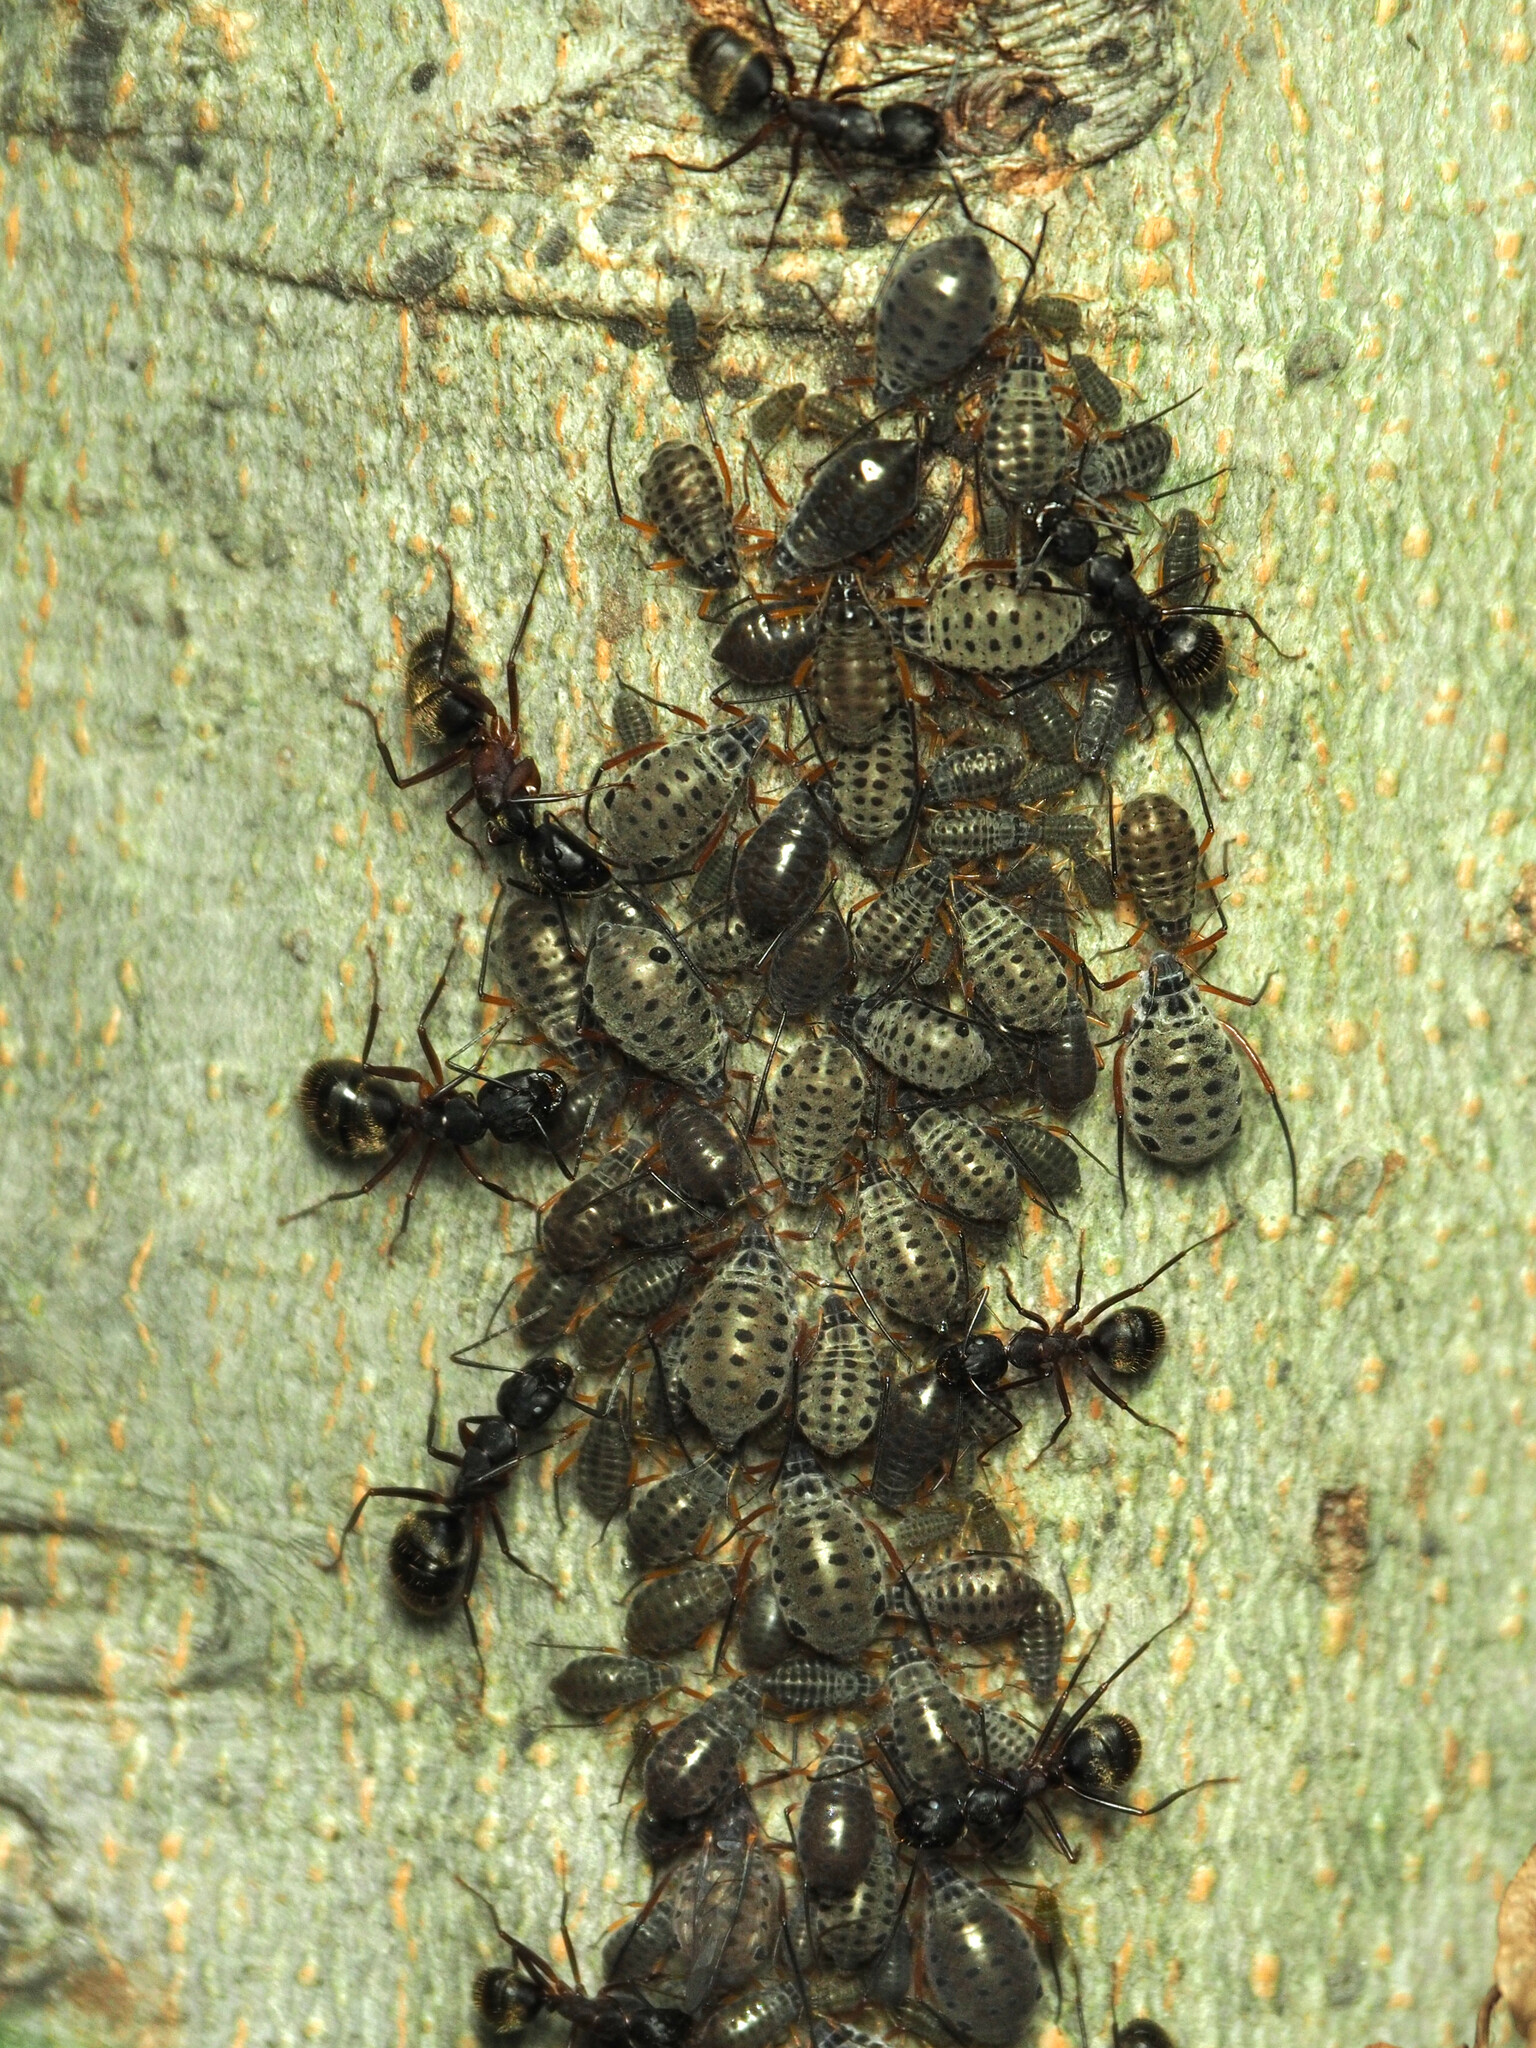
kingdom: Animalia
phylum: Arthropoda
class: Insecta
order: Hemiptera
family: Aphididae
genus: Longistigma
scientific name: Longistigma caryae
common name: Giant bark aphid
